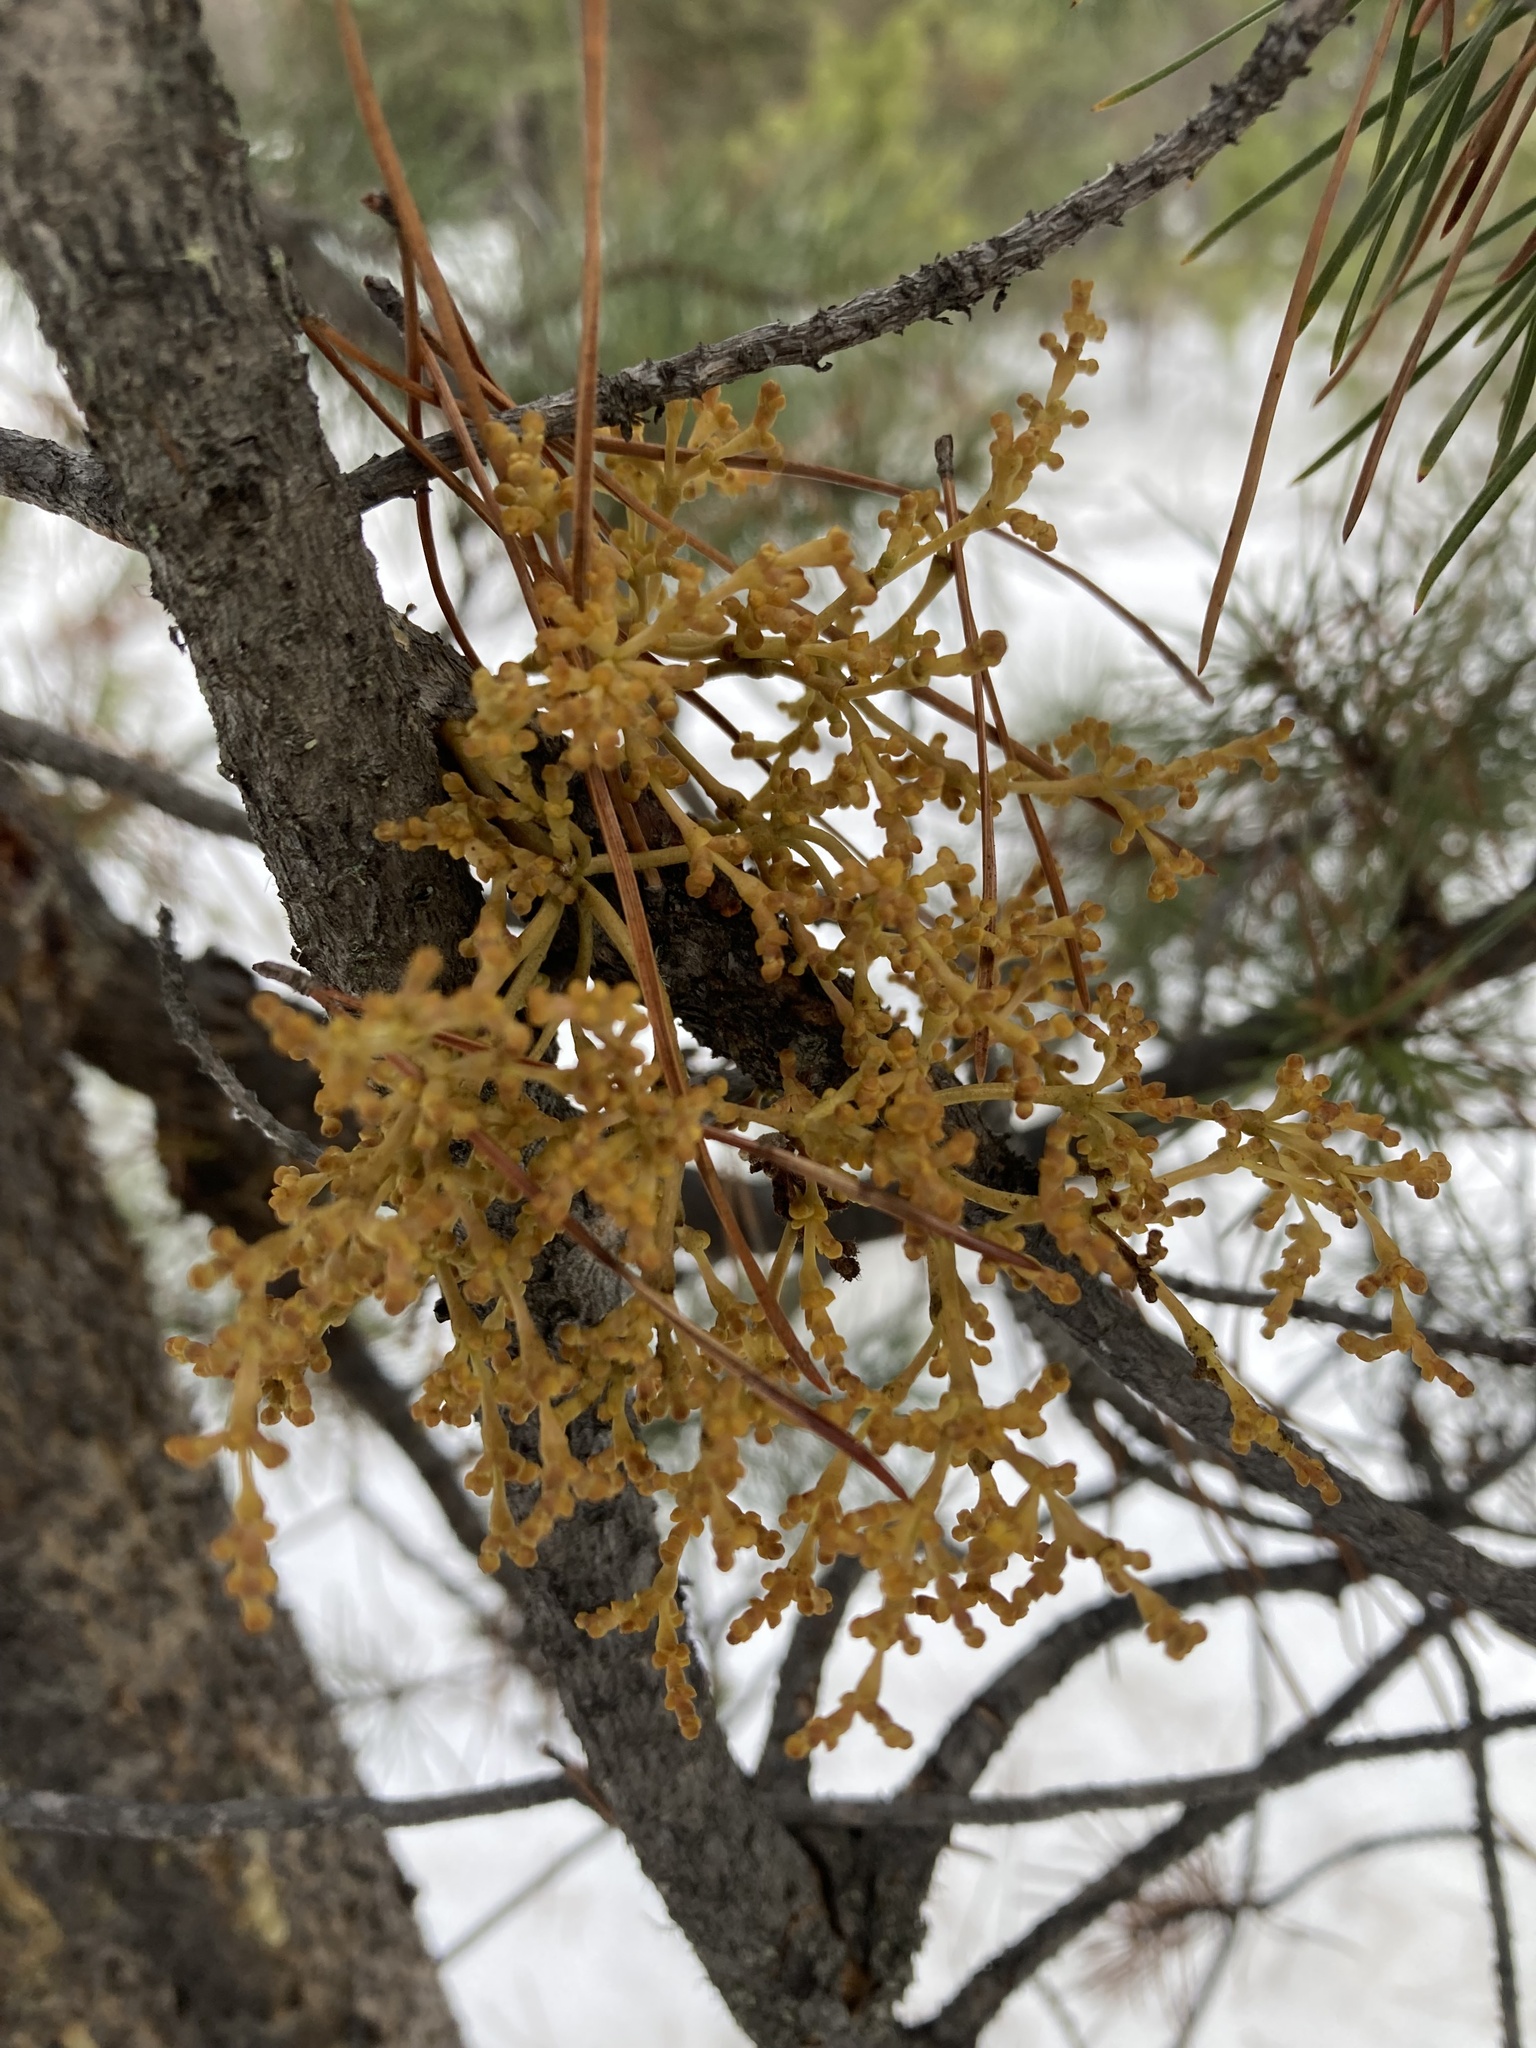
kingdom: Plantae
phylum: Tracheophyta
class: Magnoliopsida
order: Santalales
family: Viscaceae
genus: Arceuthobium
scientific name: Arceuthobium americanum
